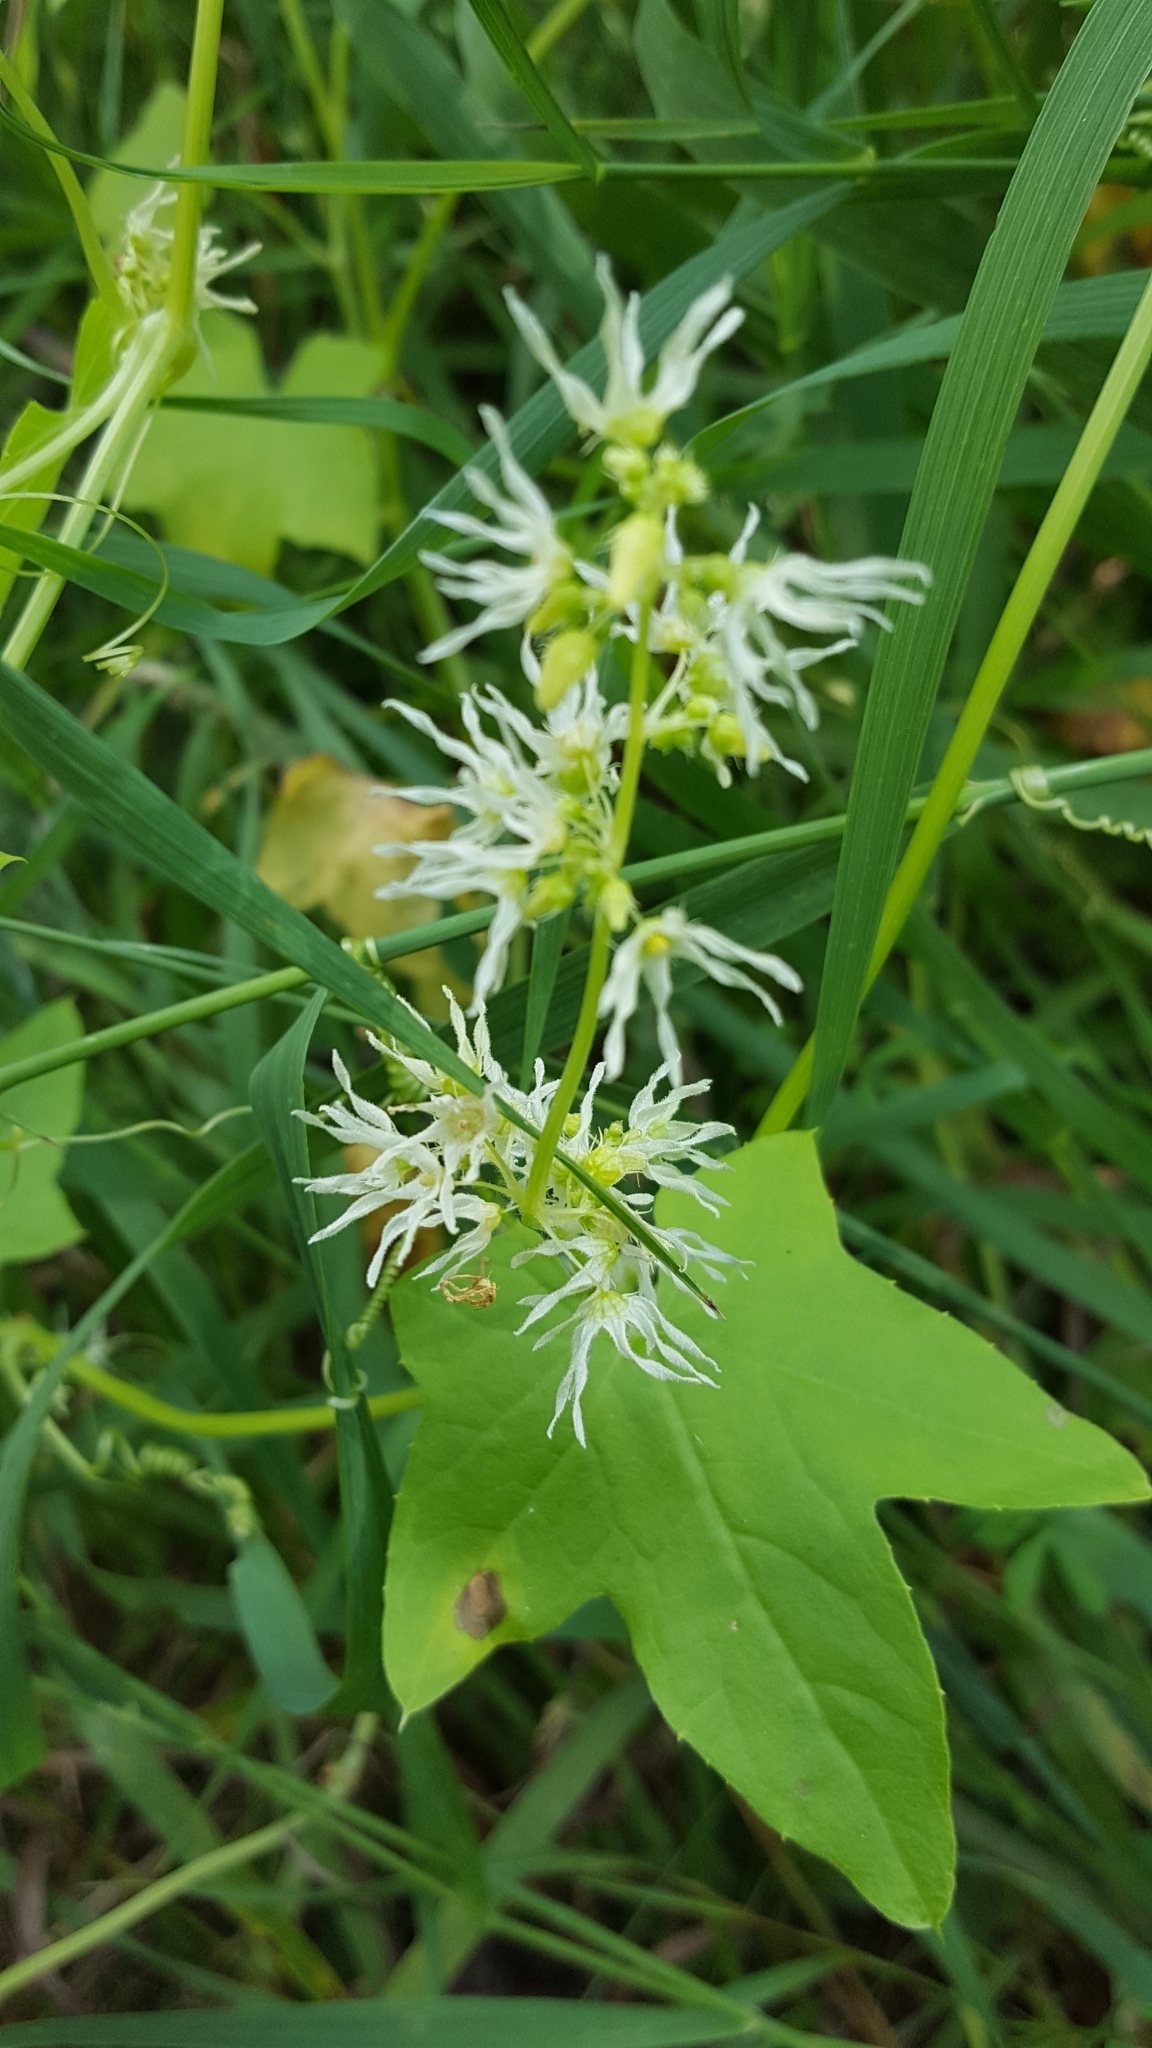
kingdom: Plantae
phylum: Tracheophyta
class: Magnoliopsida
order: Cucurbitales
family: Cucurbitaceae
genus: Echinocystis
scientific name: Echinocystis lobata
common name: Wild cucumber
